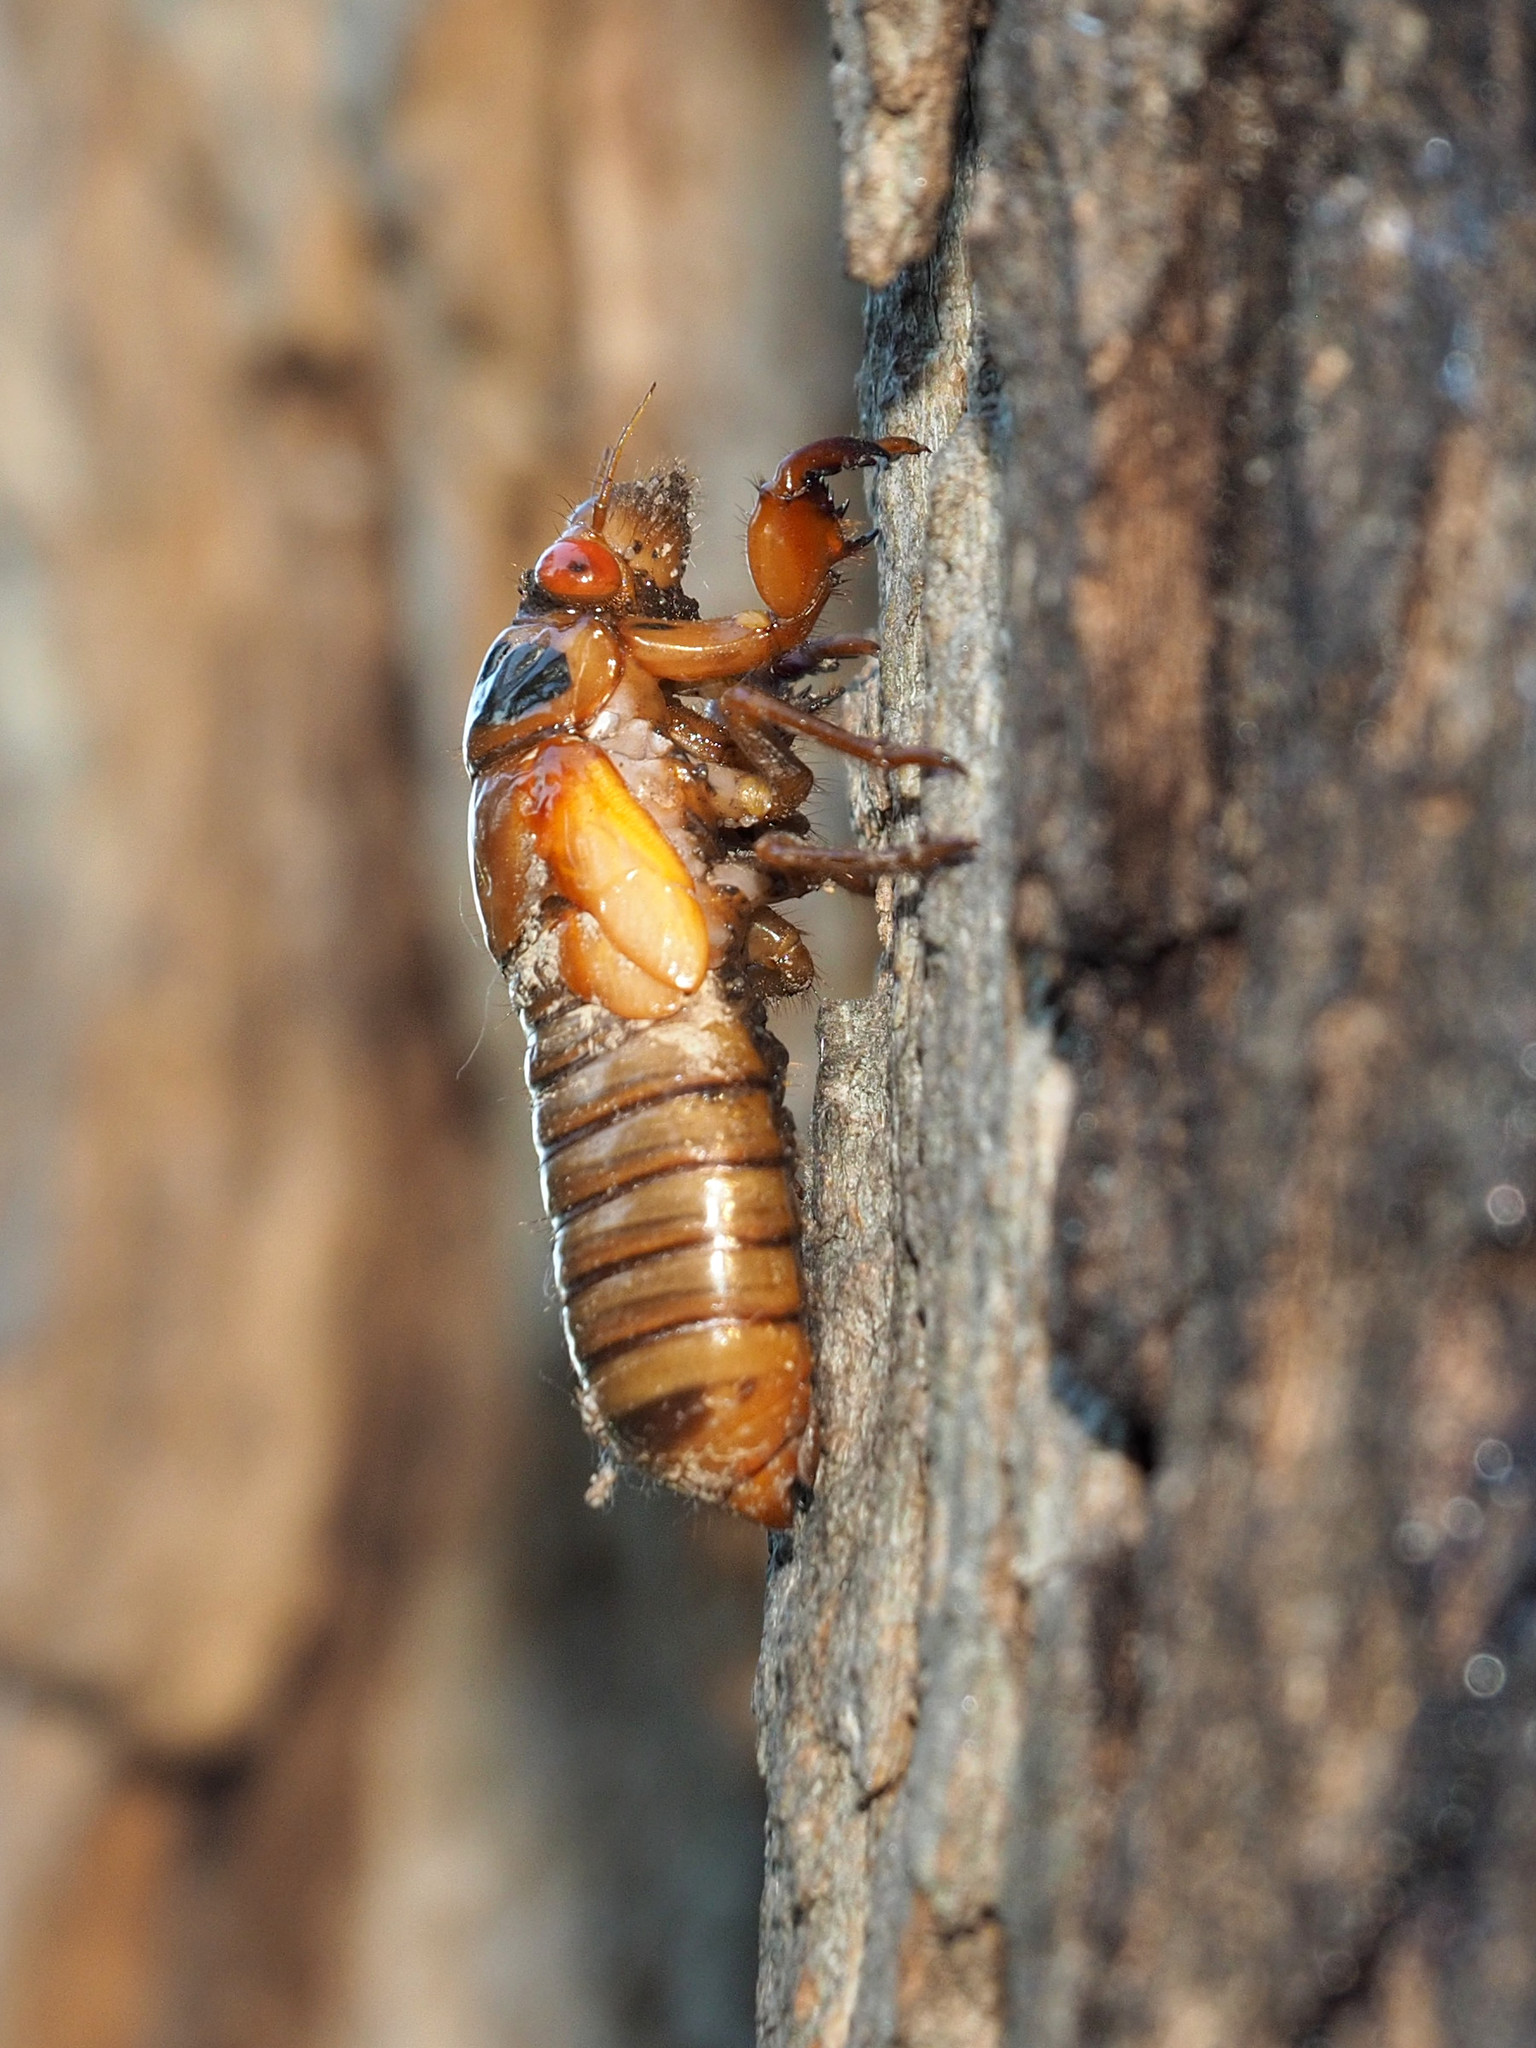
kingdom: Animalia
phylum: Arthropoda
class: Insecta
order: Hemiptera
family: Cicadidae
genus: Magicicada
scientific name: Magicicada
